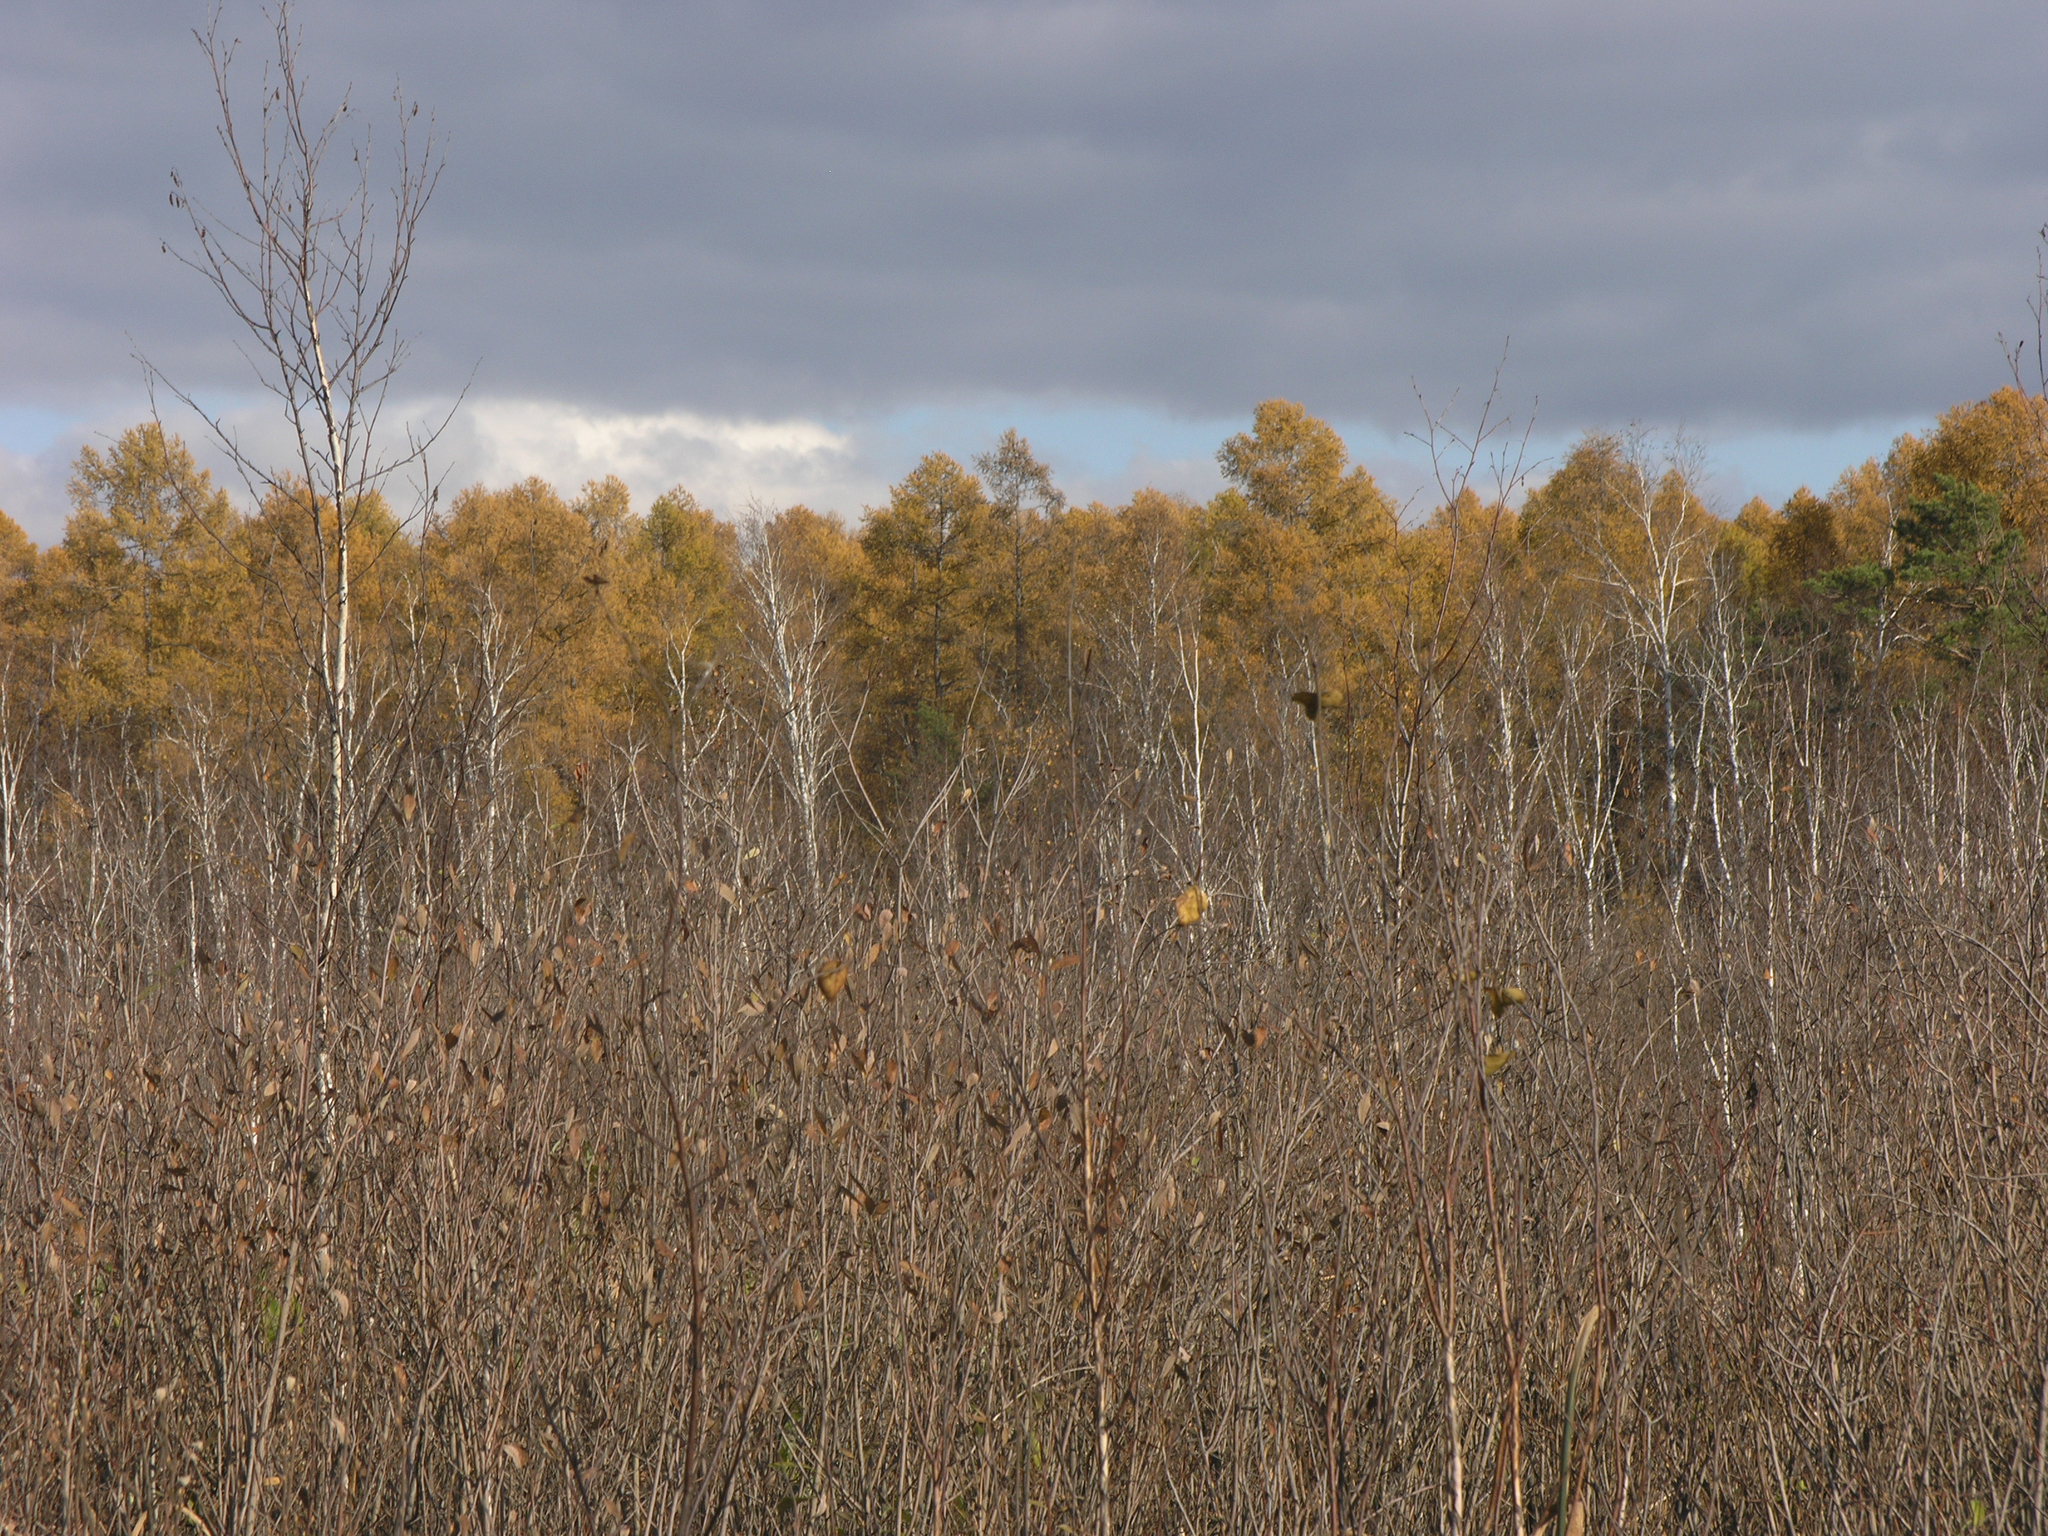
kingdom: Plantae
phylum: Tracheophyta
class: Pinopsida
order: Pinales
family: Pinaceae
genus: Larix
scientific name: Larix sibirica
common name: Siberian larch
